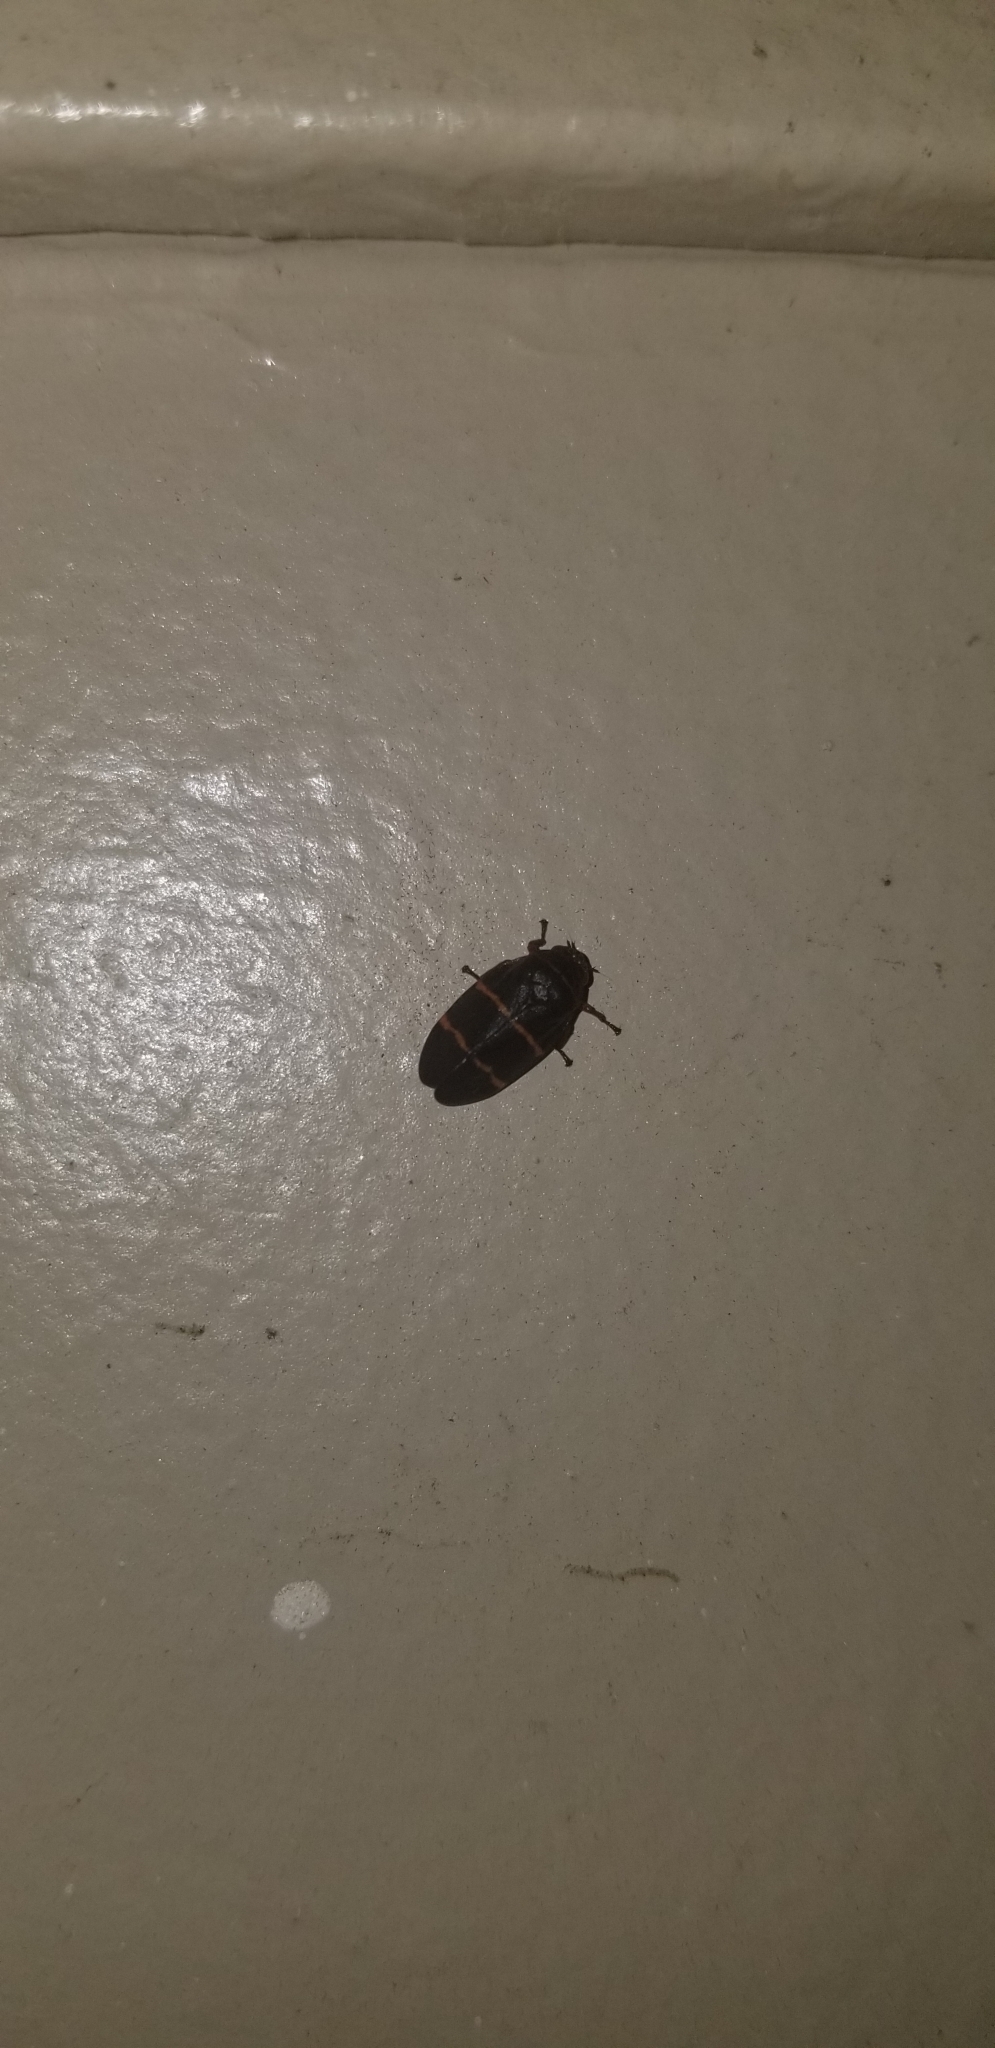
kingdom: Animalia
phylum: Arthropoda
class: Insecta
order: Hemiptera
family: Cercopidae
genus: Prosapia
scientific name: Prosapia bicincta
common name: Twolined spittlebug
